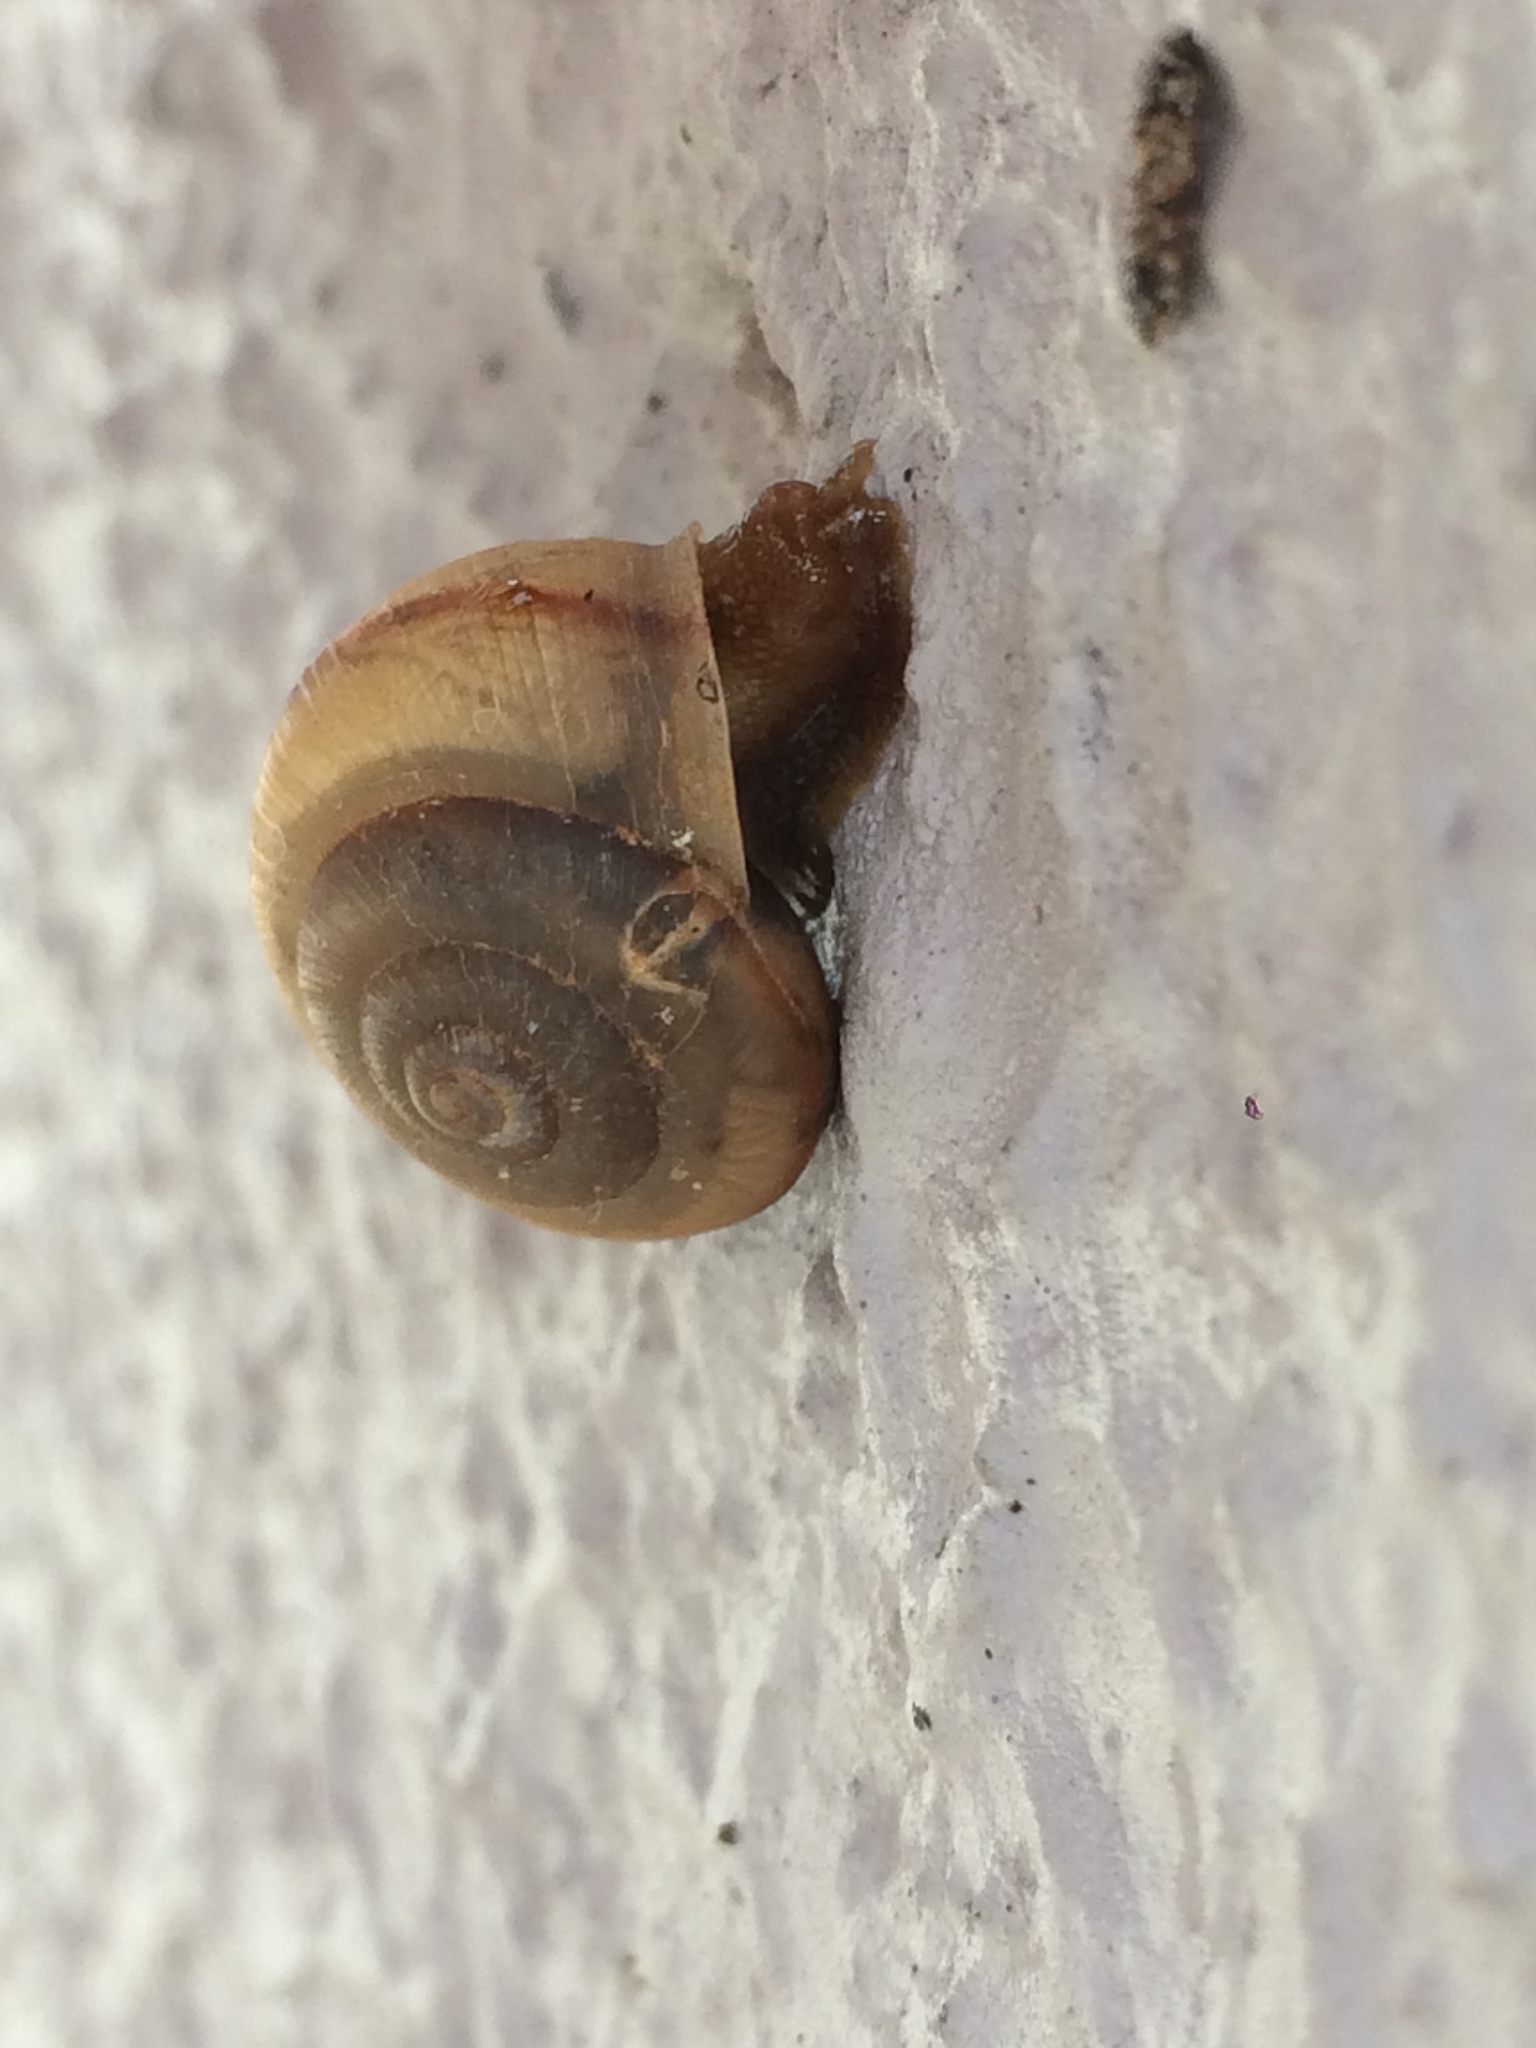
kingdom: Animalia
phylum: Mollusca
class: Gastropoda
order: Stylommatophora
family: Camaenidae
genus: Bradybaena
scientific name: Bradybaena similaris
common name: Asian trampsnail
